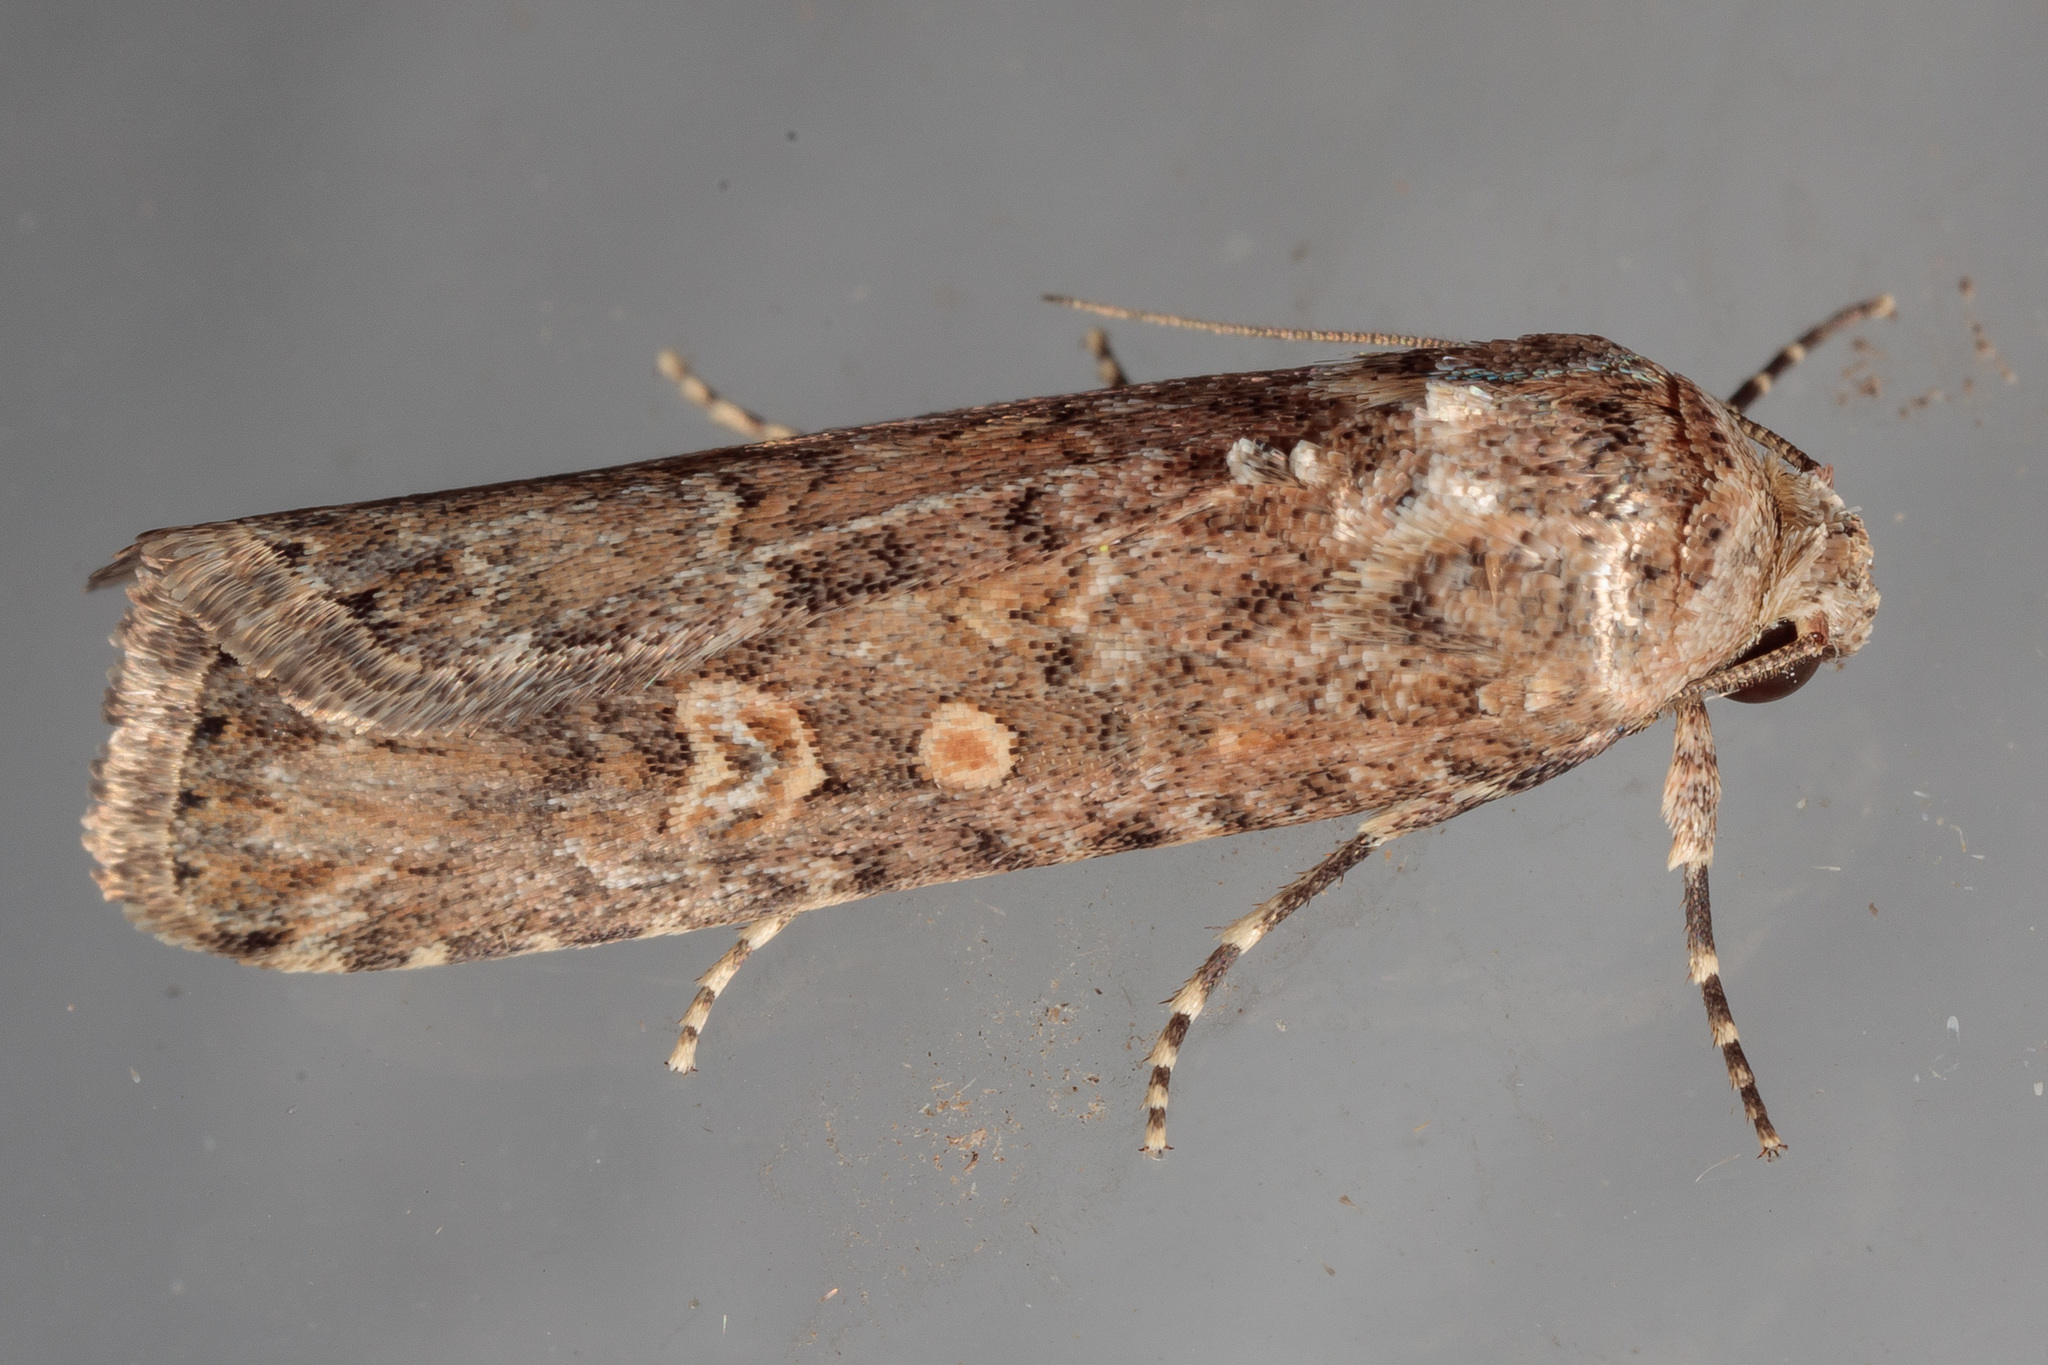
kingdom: Animalia
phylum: Arthropoda
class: Insecta
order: Lepidoptera
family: Noctuidae
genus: Spodoptera
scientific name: Spodoptera exigua
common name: Beet armyworm
